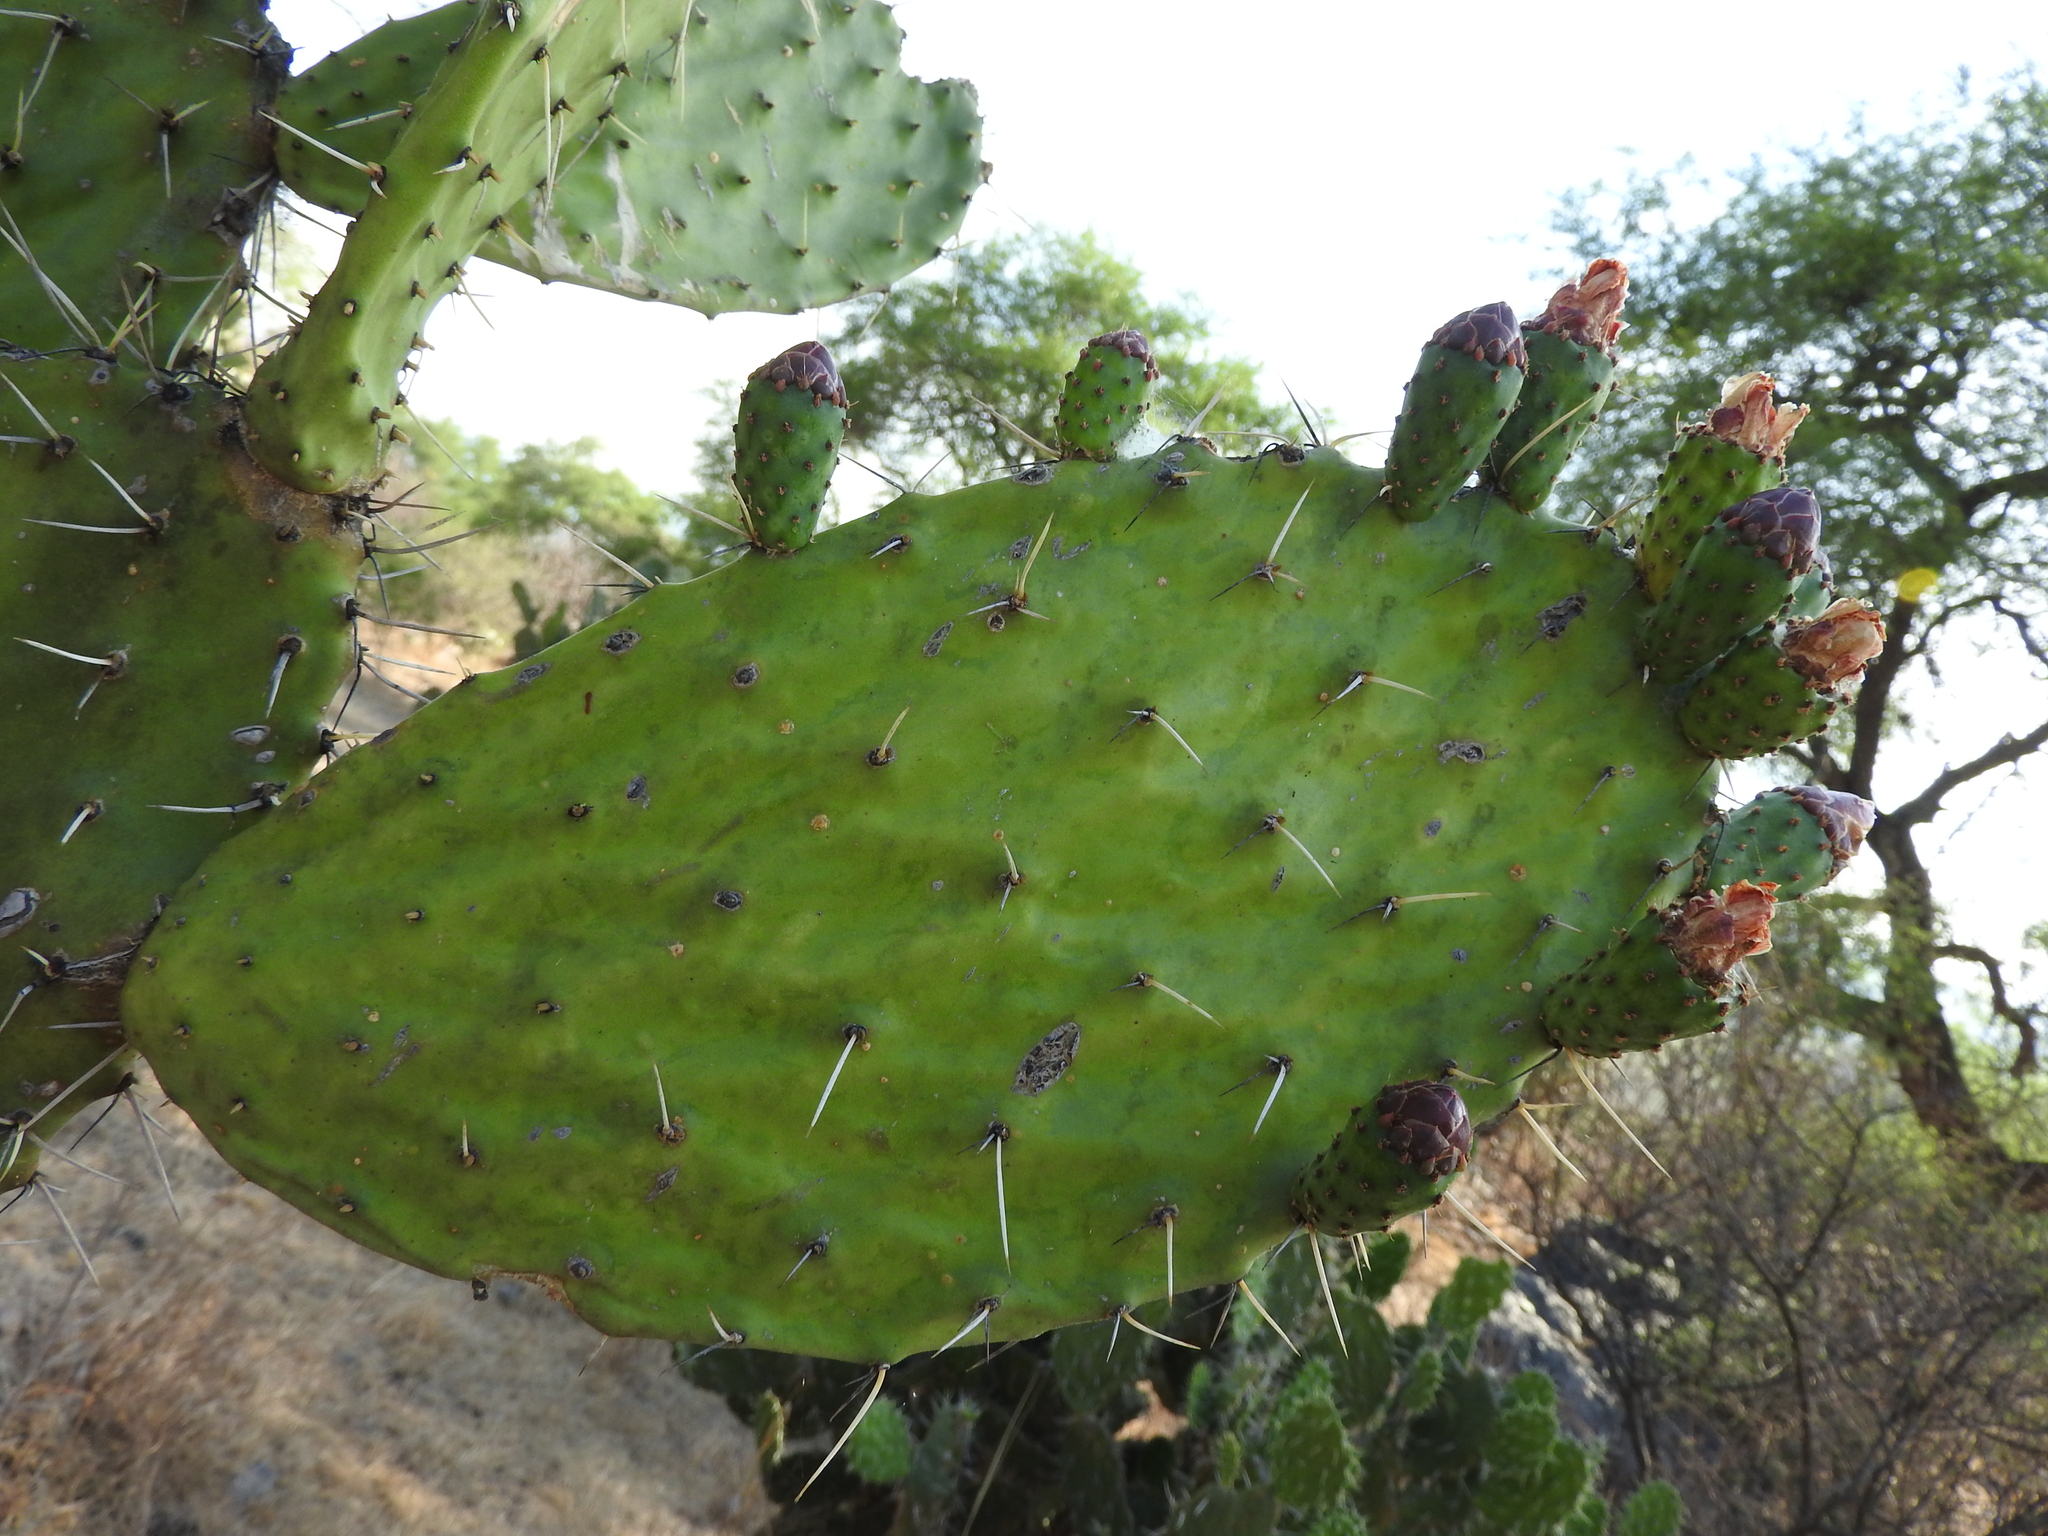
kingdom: Plantae
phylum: Tracheophyta
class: Magnoliopsida
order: Caryophyllales
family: Cactaceae
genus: Opuntia
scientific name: Opuntia lasiacantha
